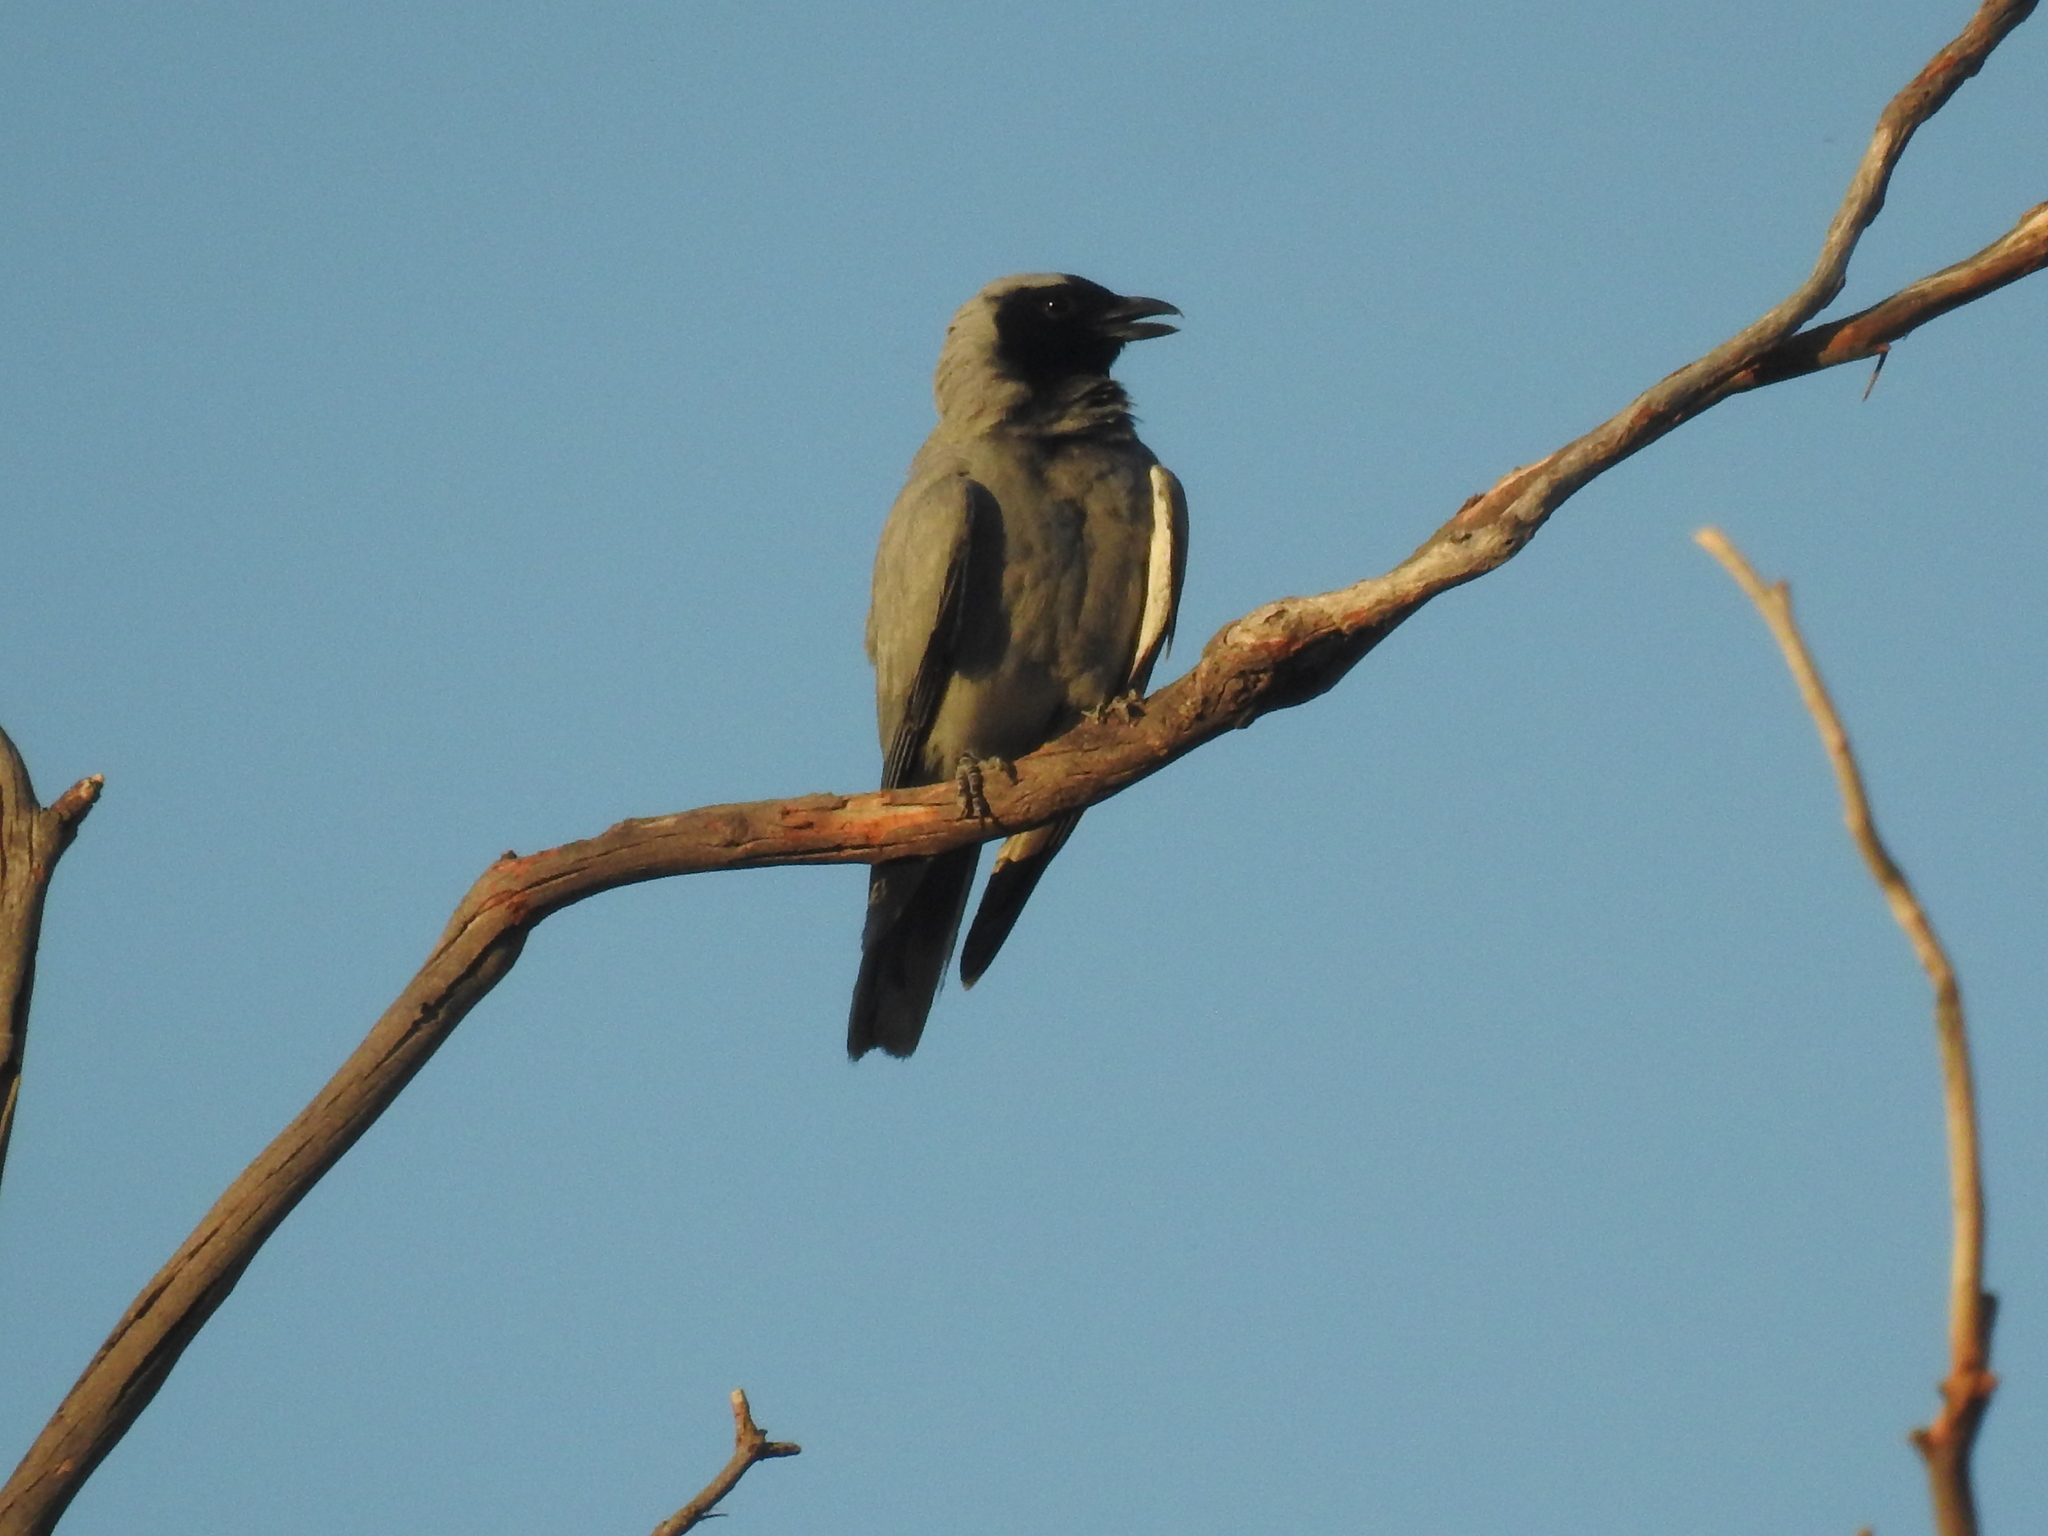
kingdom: Animalia
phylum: Chordata
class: Aves
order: Passeriformes
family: Campephagidae
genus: Coracina
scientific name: Coracina novaehollandiae
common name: Black-faced cuckooshrike
